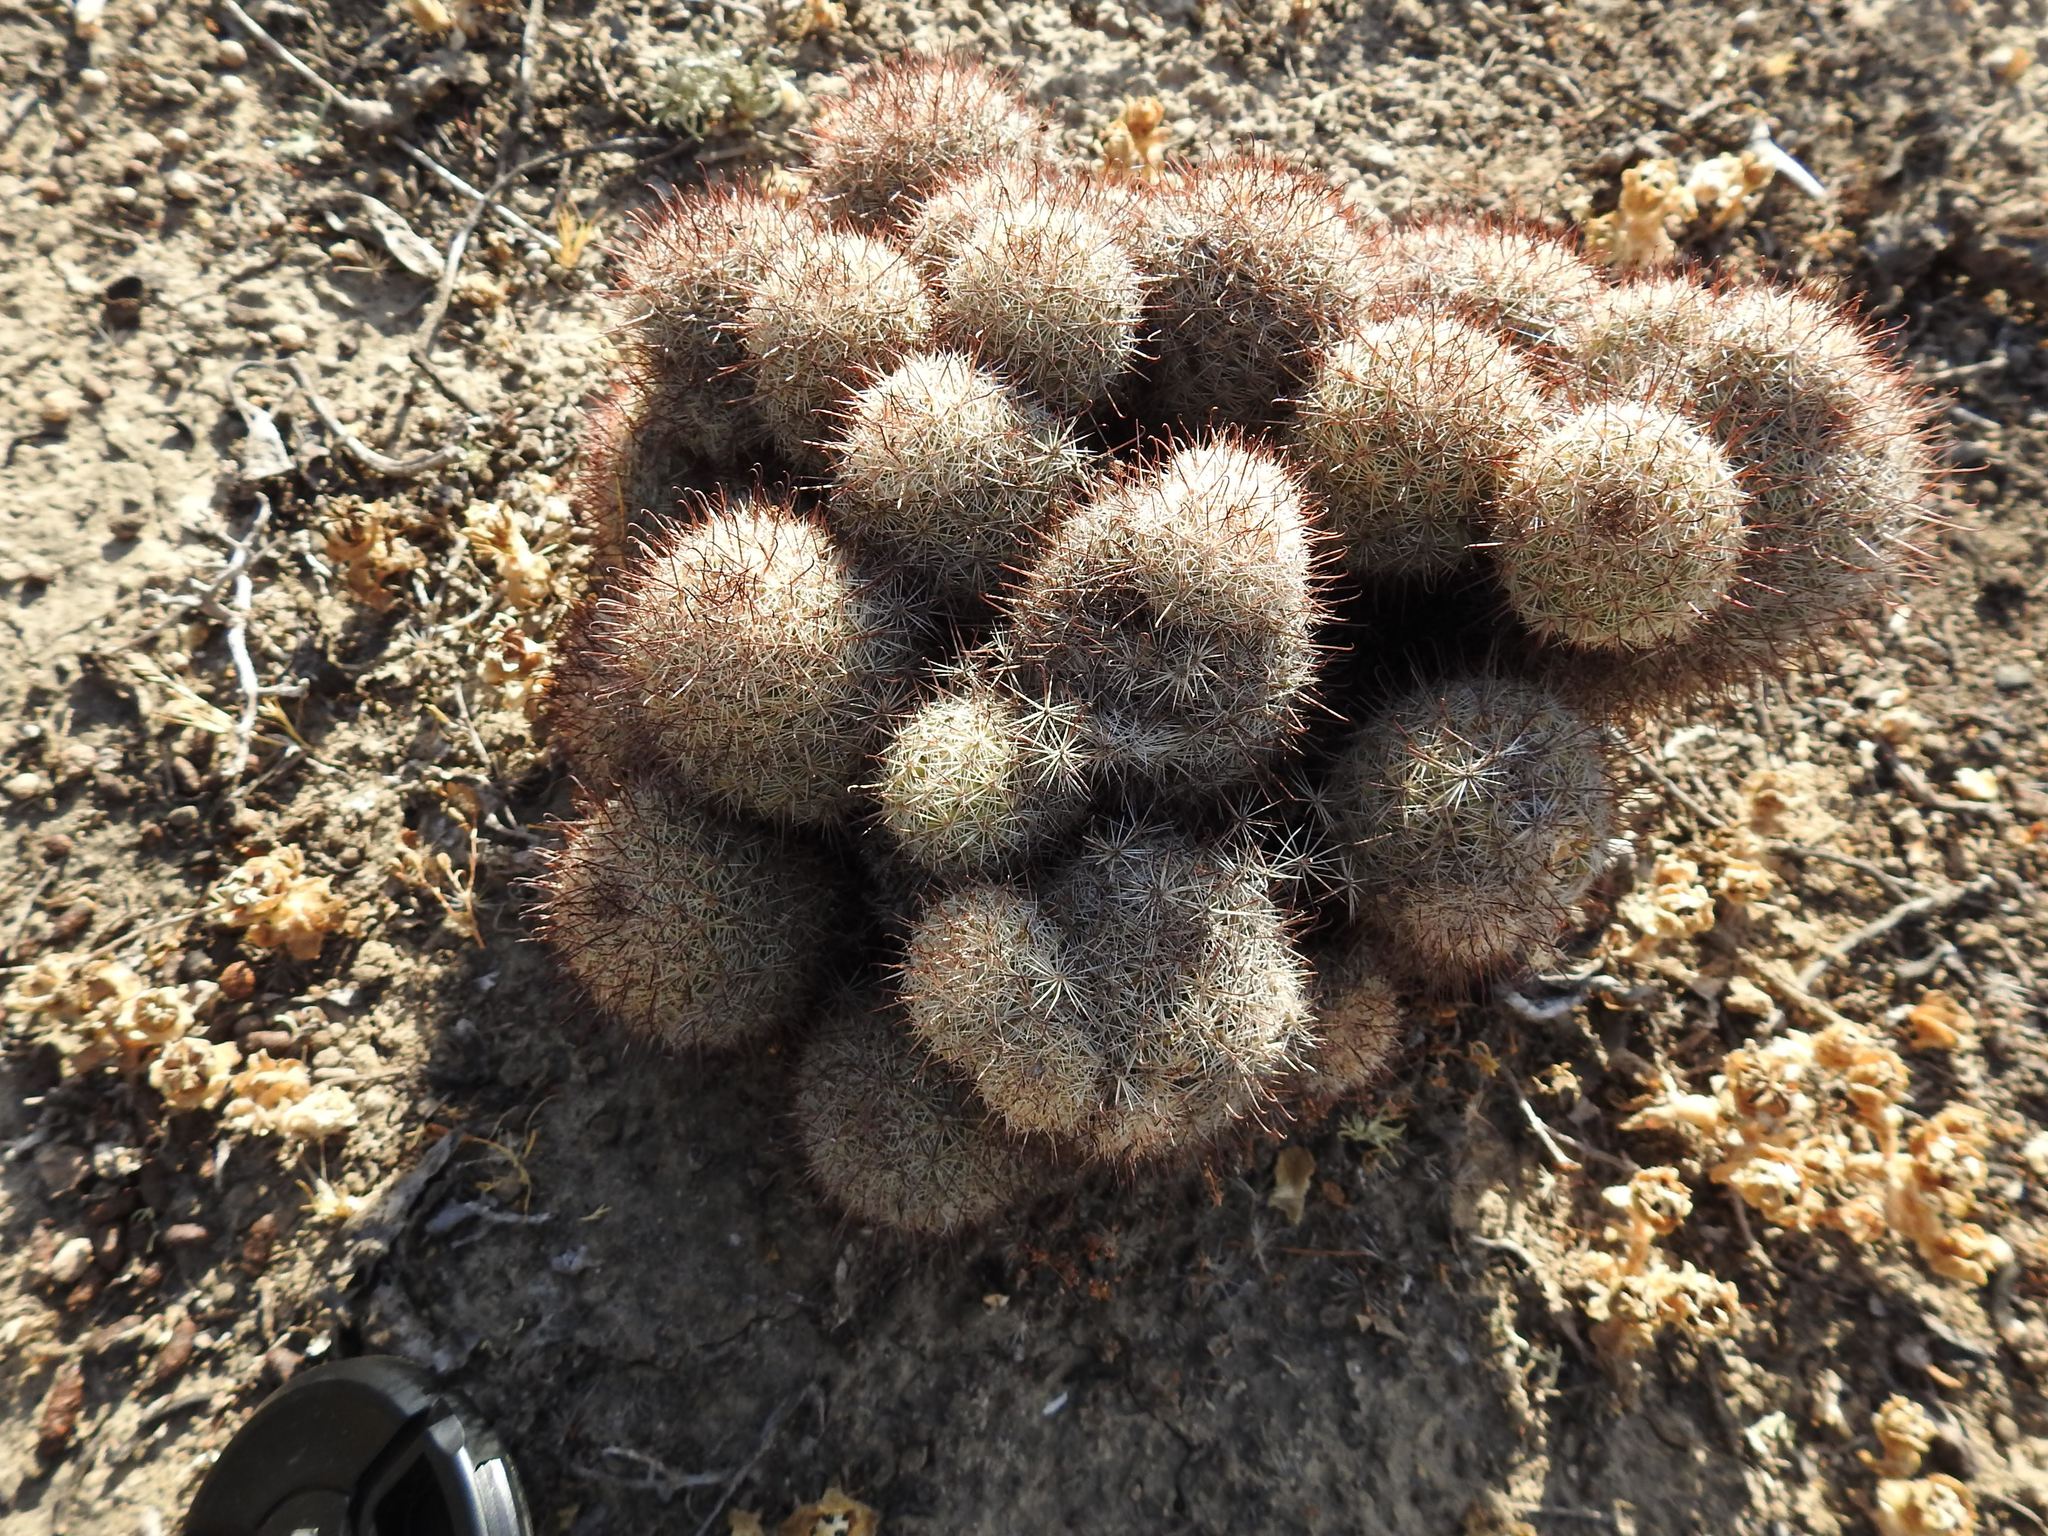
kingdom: Plantae
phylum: Tracheophyta
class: Magnoliopsida
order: Caryophyllales
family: Cactaceae
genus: Cochemiea
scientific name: Cochemiea dioica
